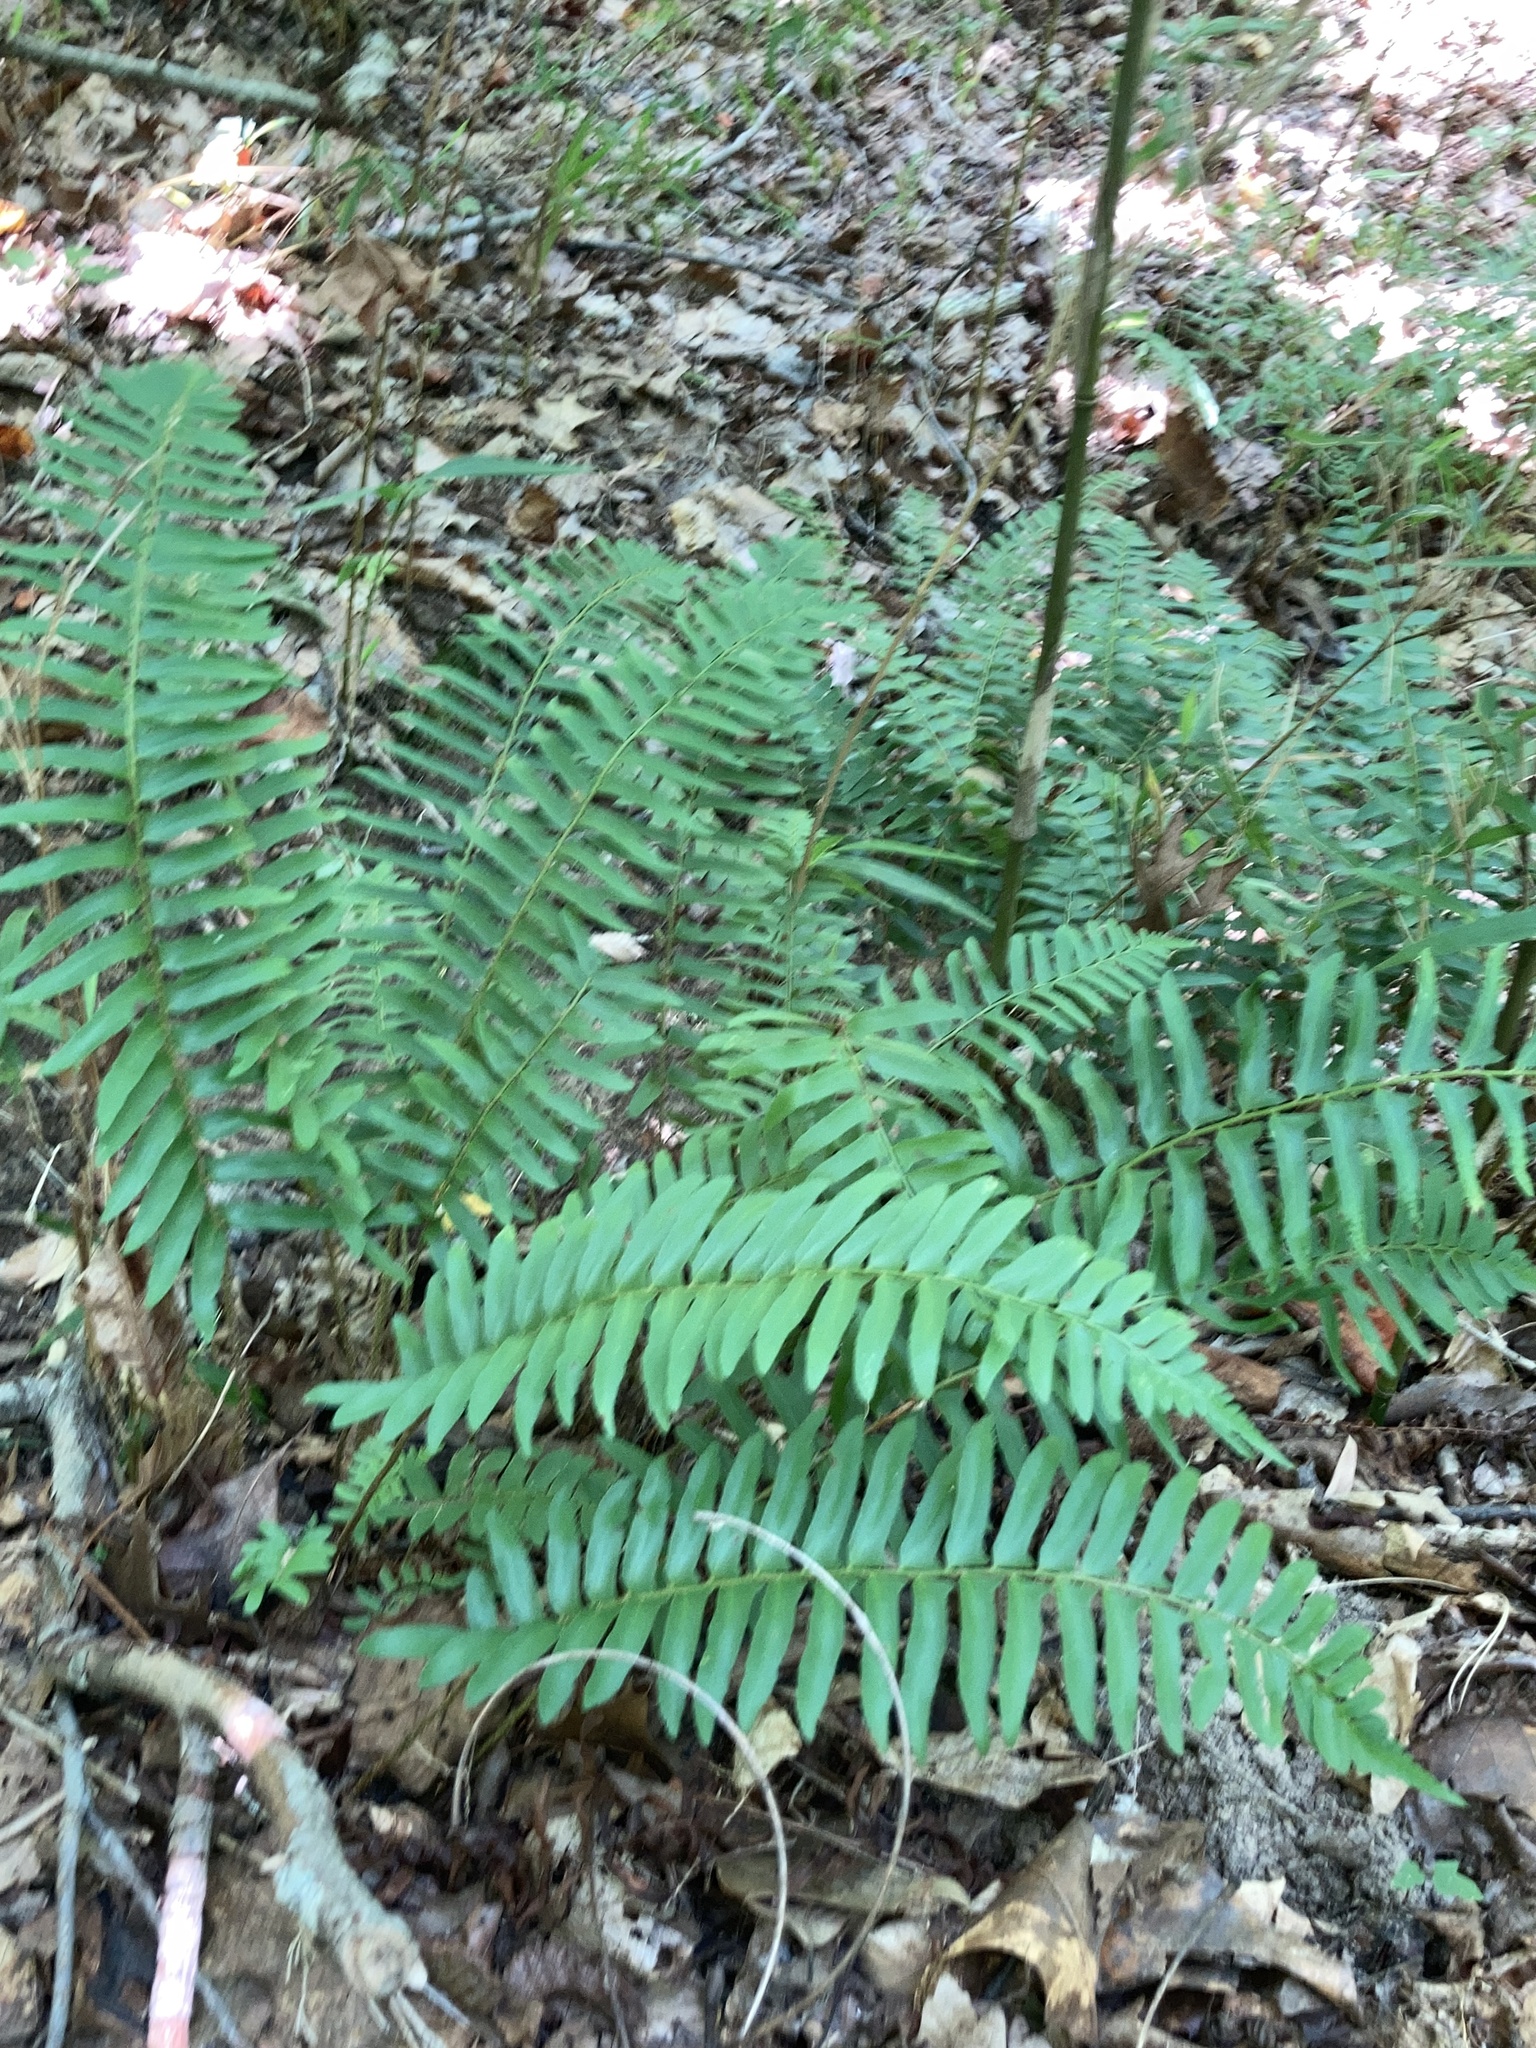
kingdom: Plantae
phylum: Tracheophyta
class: Polypodiopsida
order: Polypodiales
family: Dryopteridaceae
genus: Polystichum
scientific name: Polystichum acrostichoides
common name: Christmas fern
